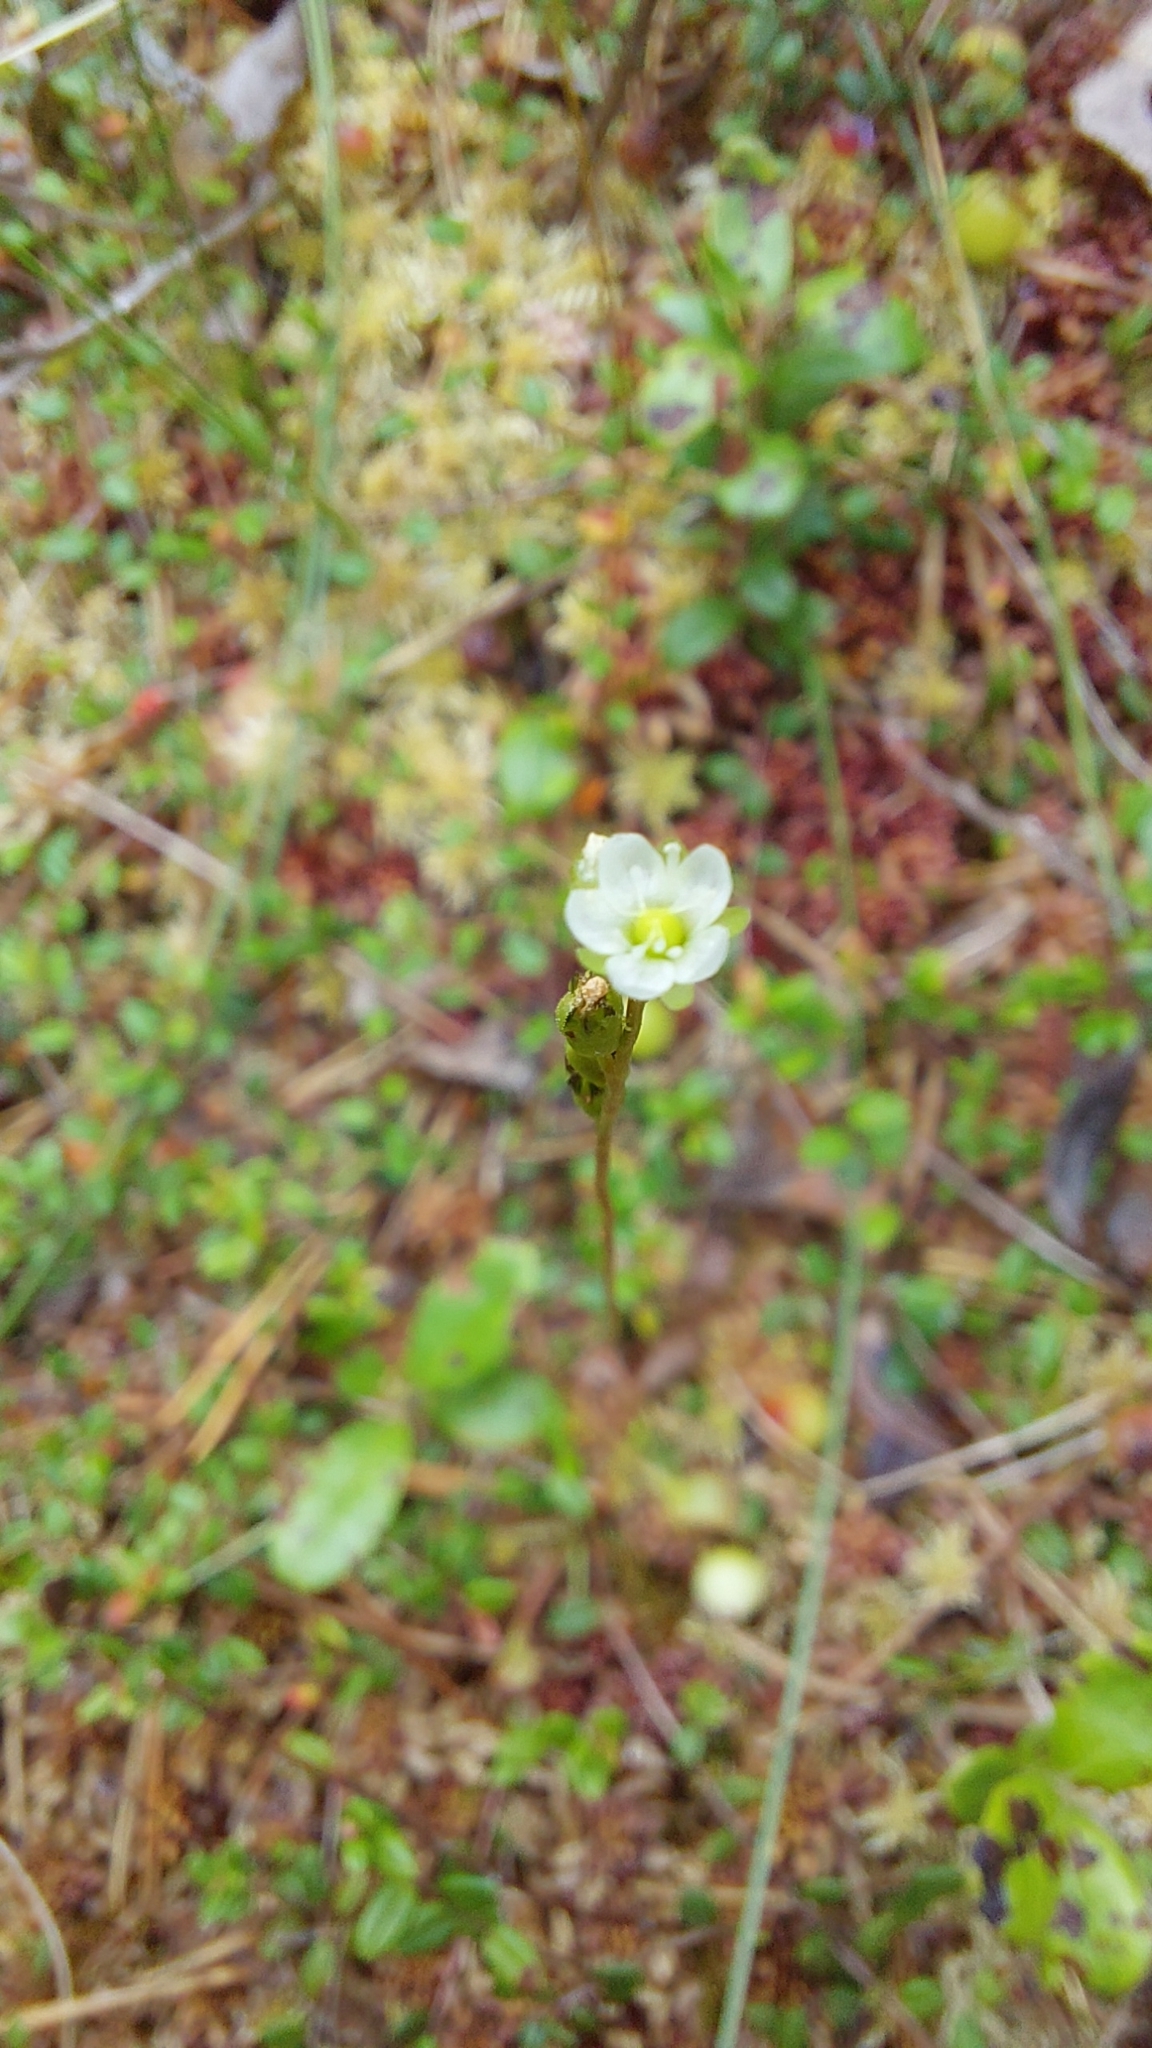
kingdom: Plantae
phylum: Tracheophyta
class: Magnoliopsida
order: Caryophyllales
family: Droseraceae
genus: Drosera
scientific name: Drosera rotundifolia
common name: Round-leaved sundew
